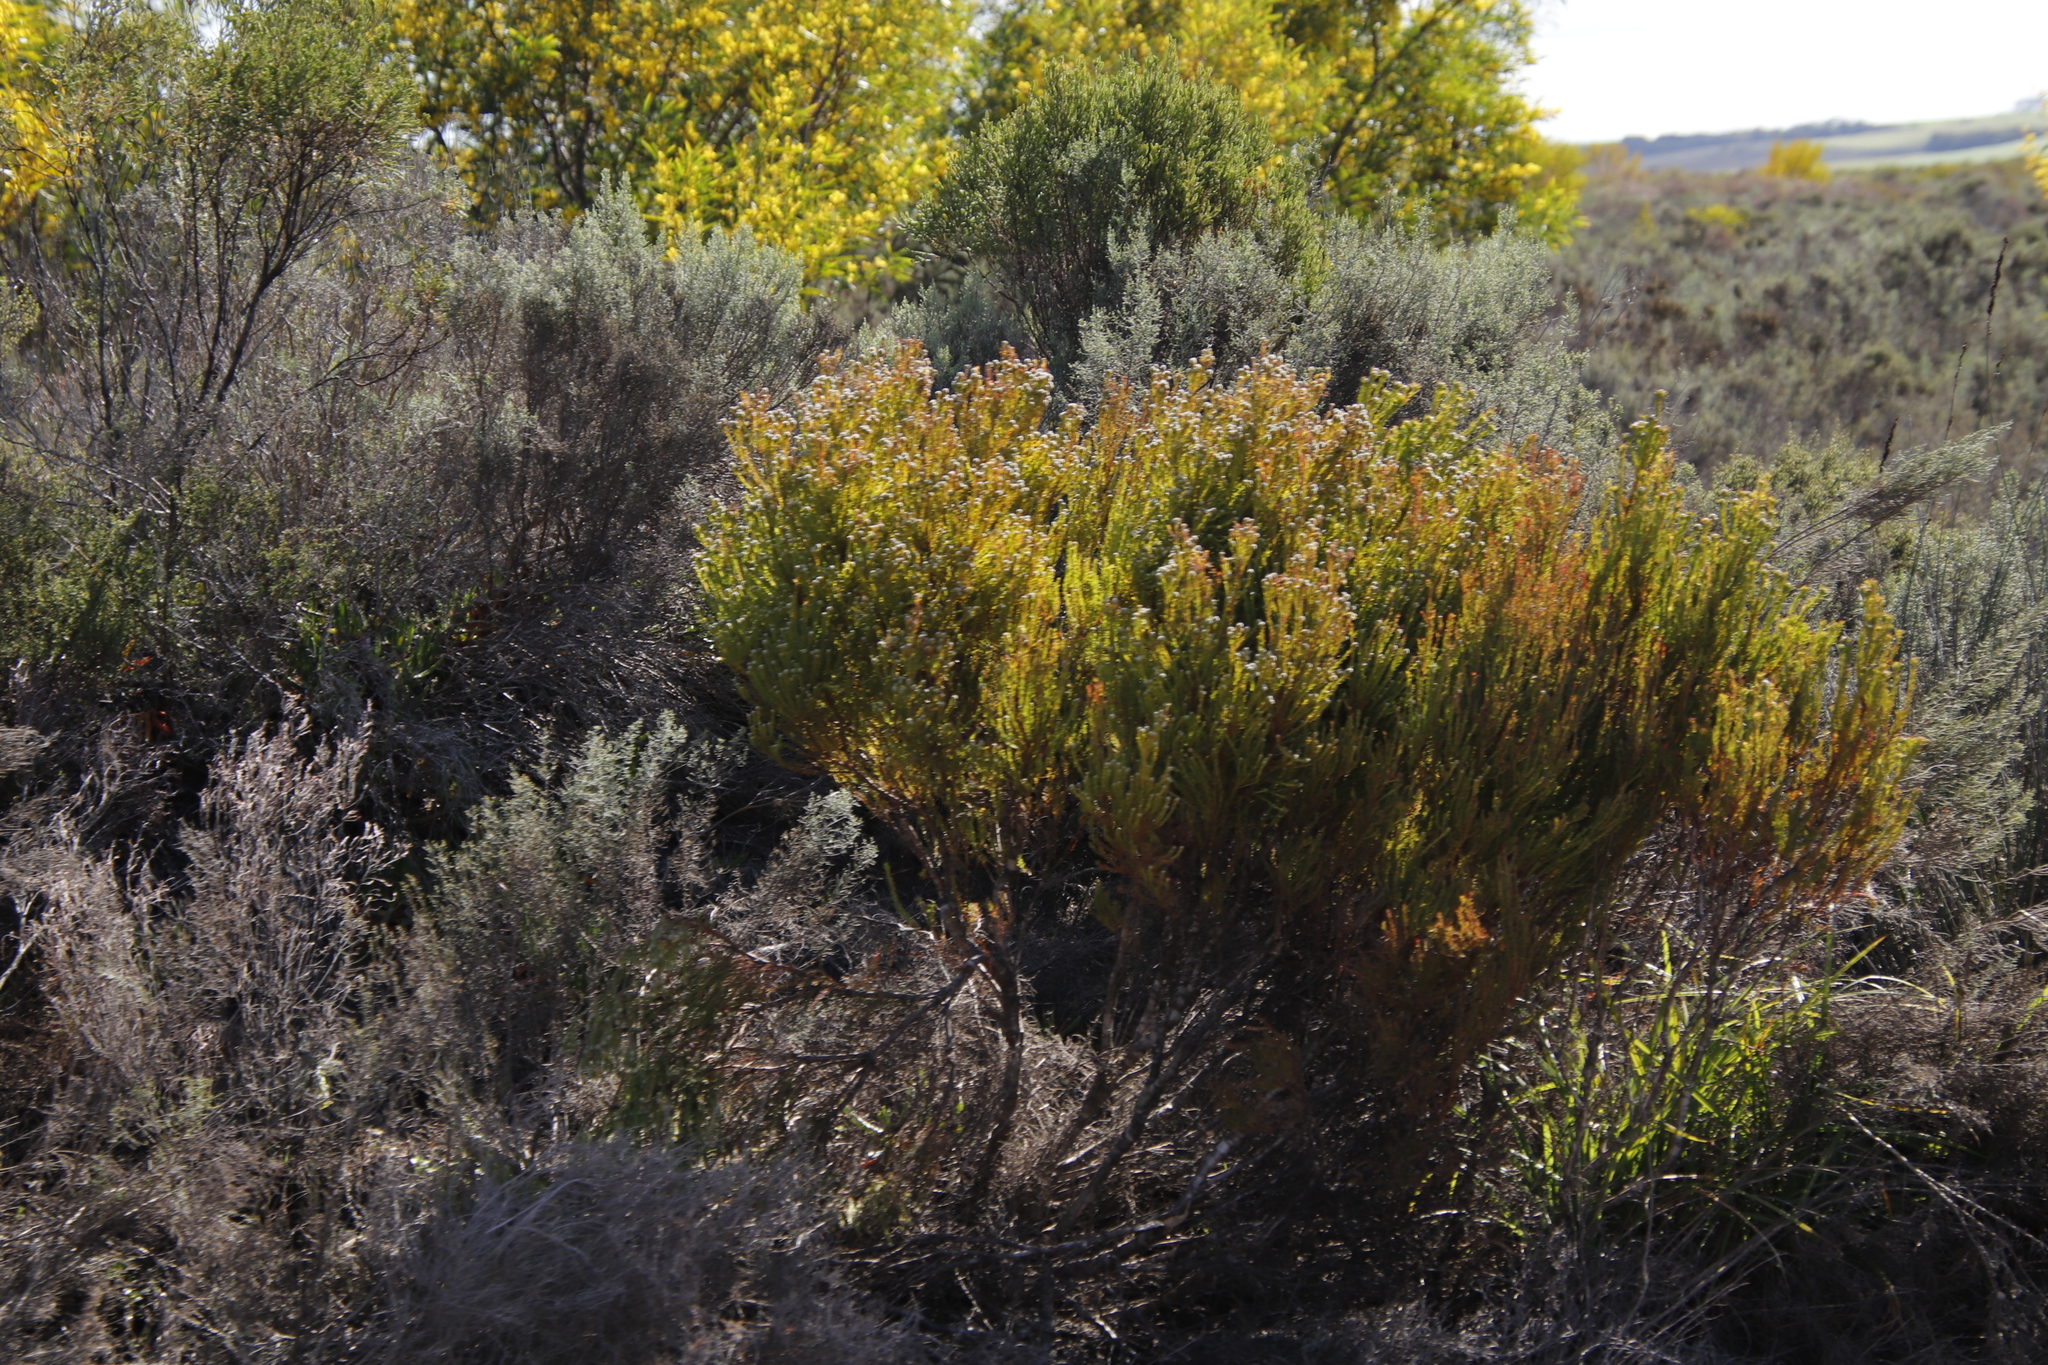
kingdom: Plantae
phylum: Tracheophyta
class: Magnoliopsida
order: Proteales
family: Proteaceae
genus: Leucadendron
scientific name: Leucadendron linifolium
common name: Line-leaf conebush
